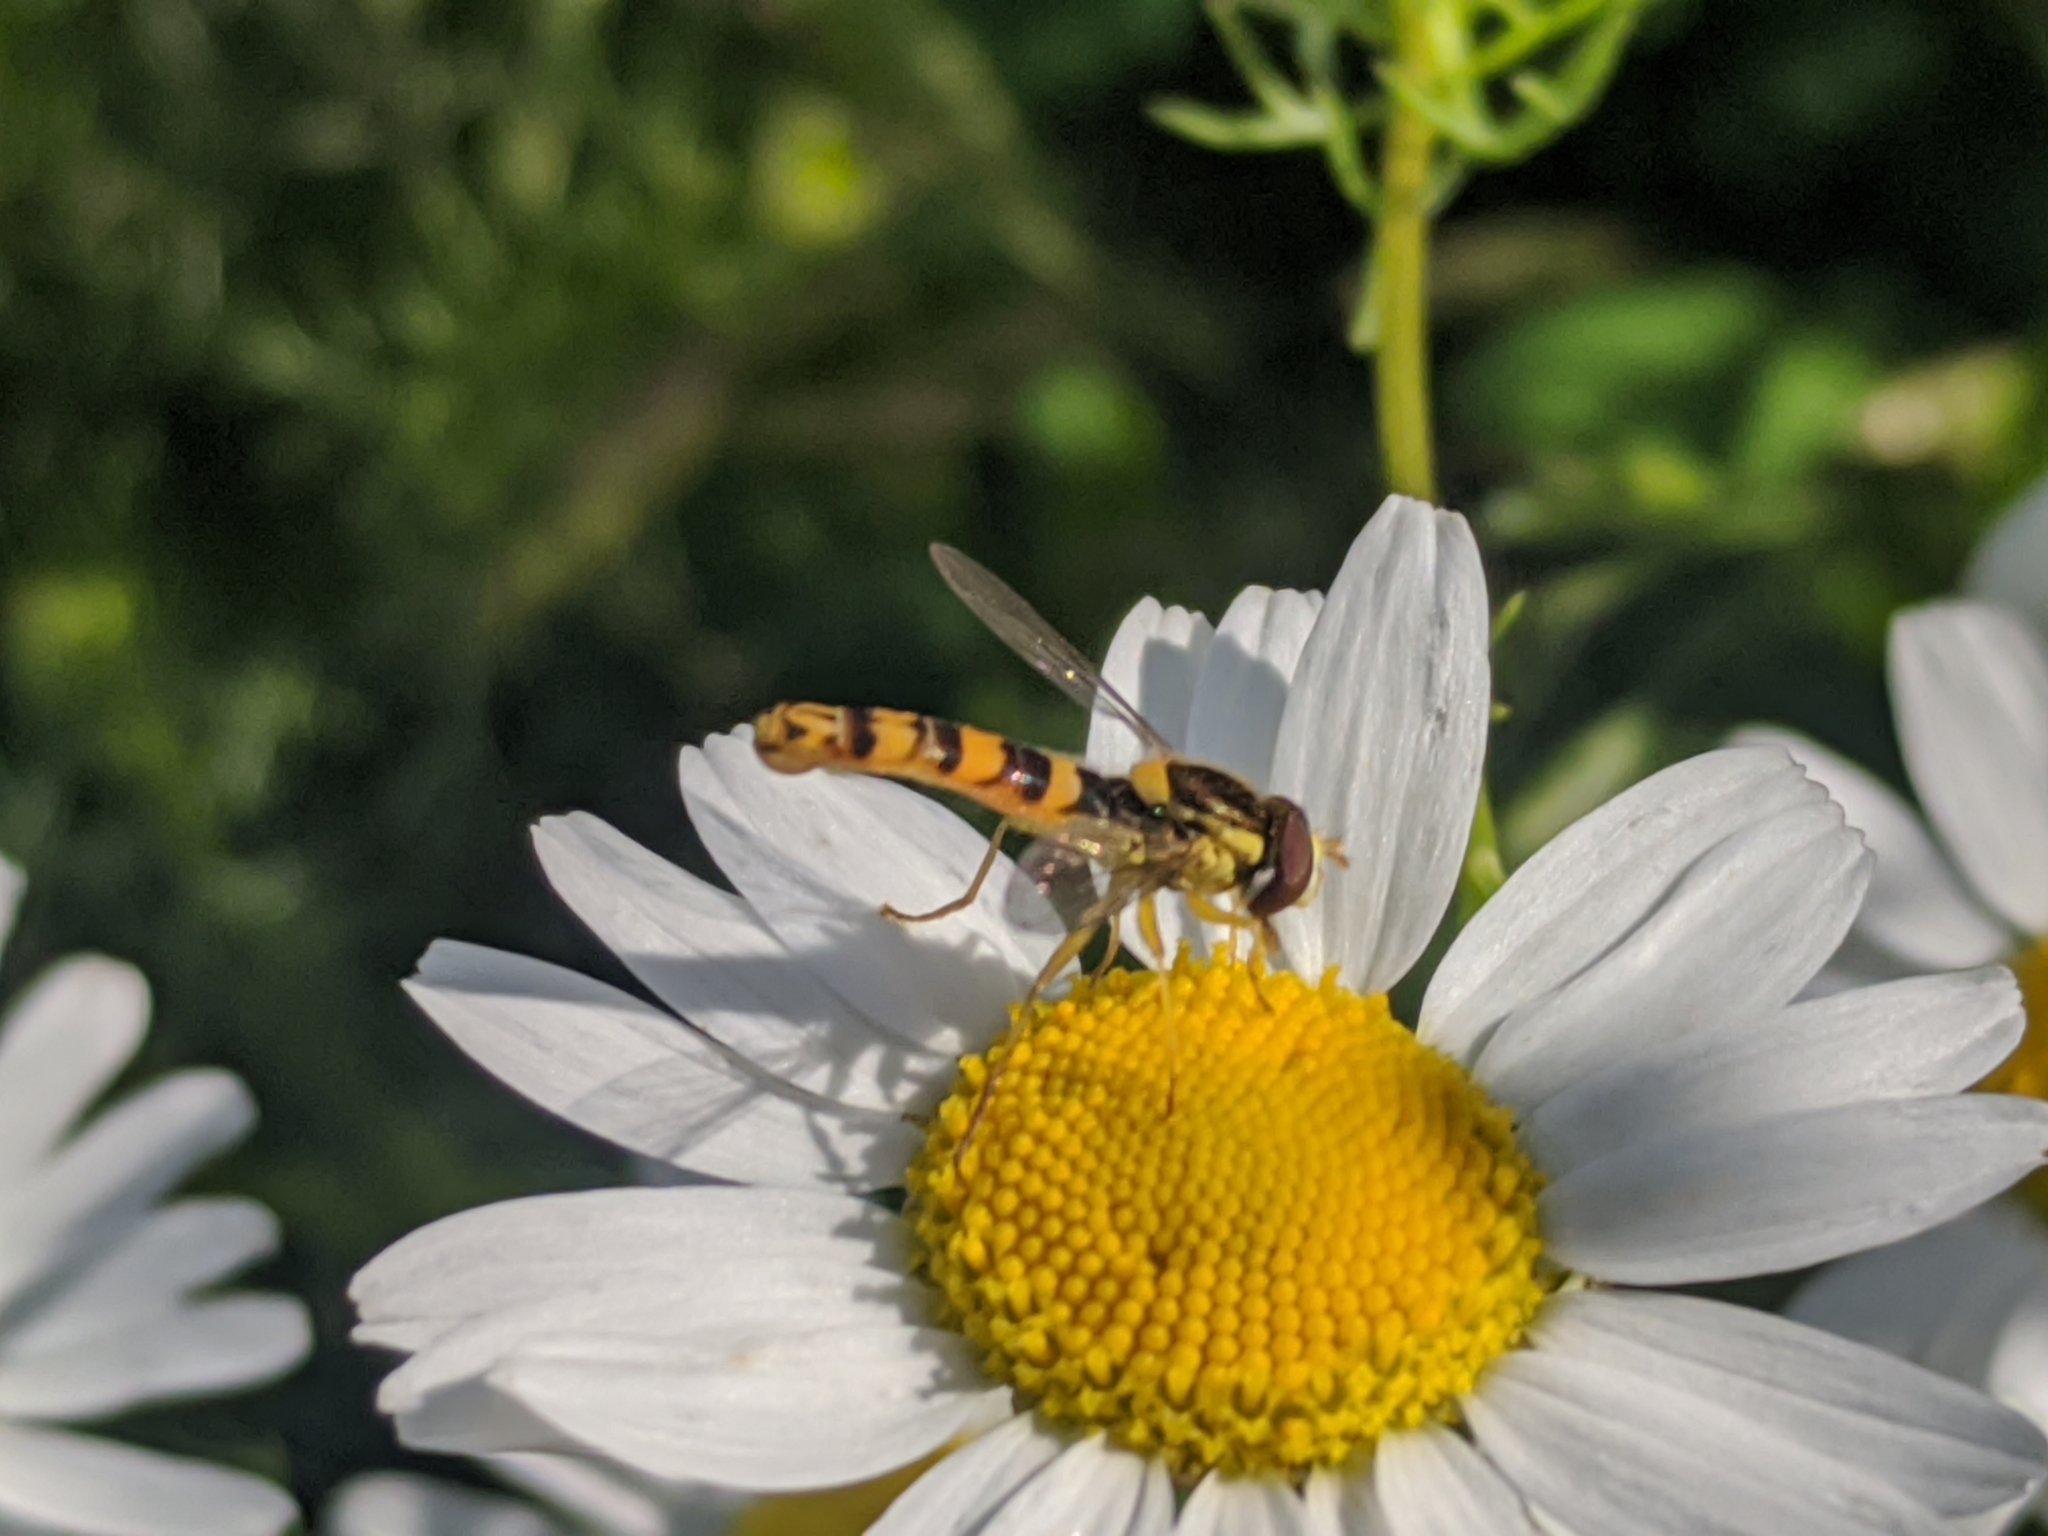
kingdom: Animalia
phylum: Arthropoda
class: Insecta
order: Diptera
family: Syrphidae
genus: Sphaerophoria
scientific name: Sphaerophoria scripta
